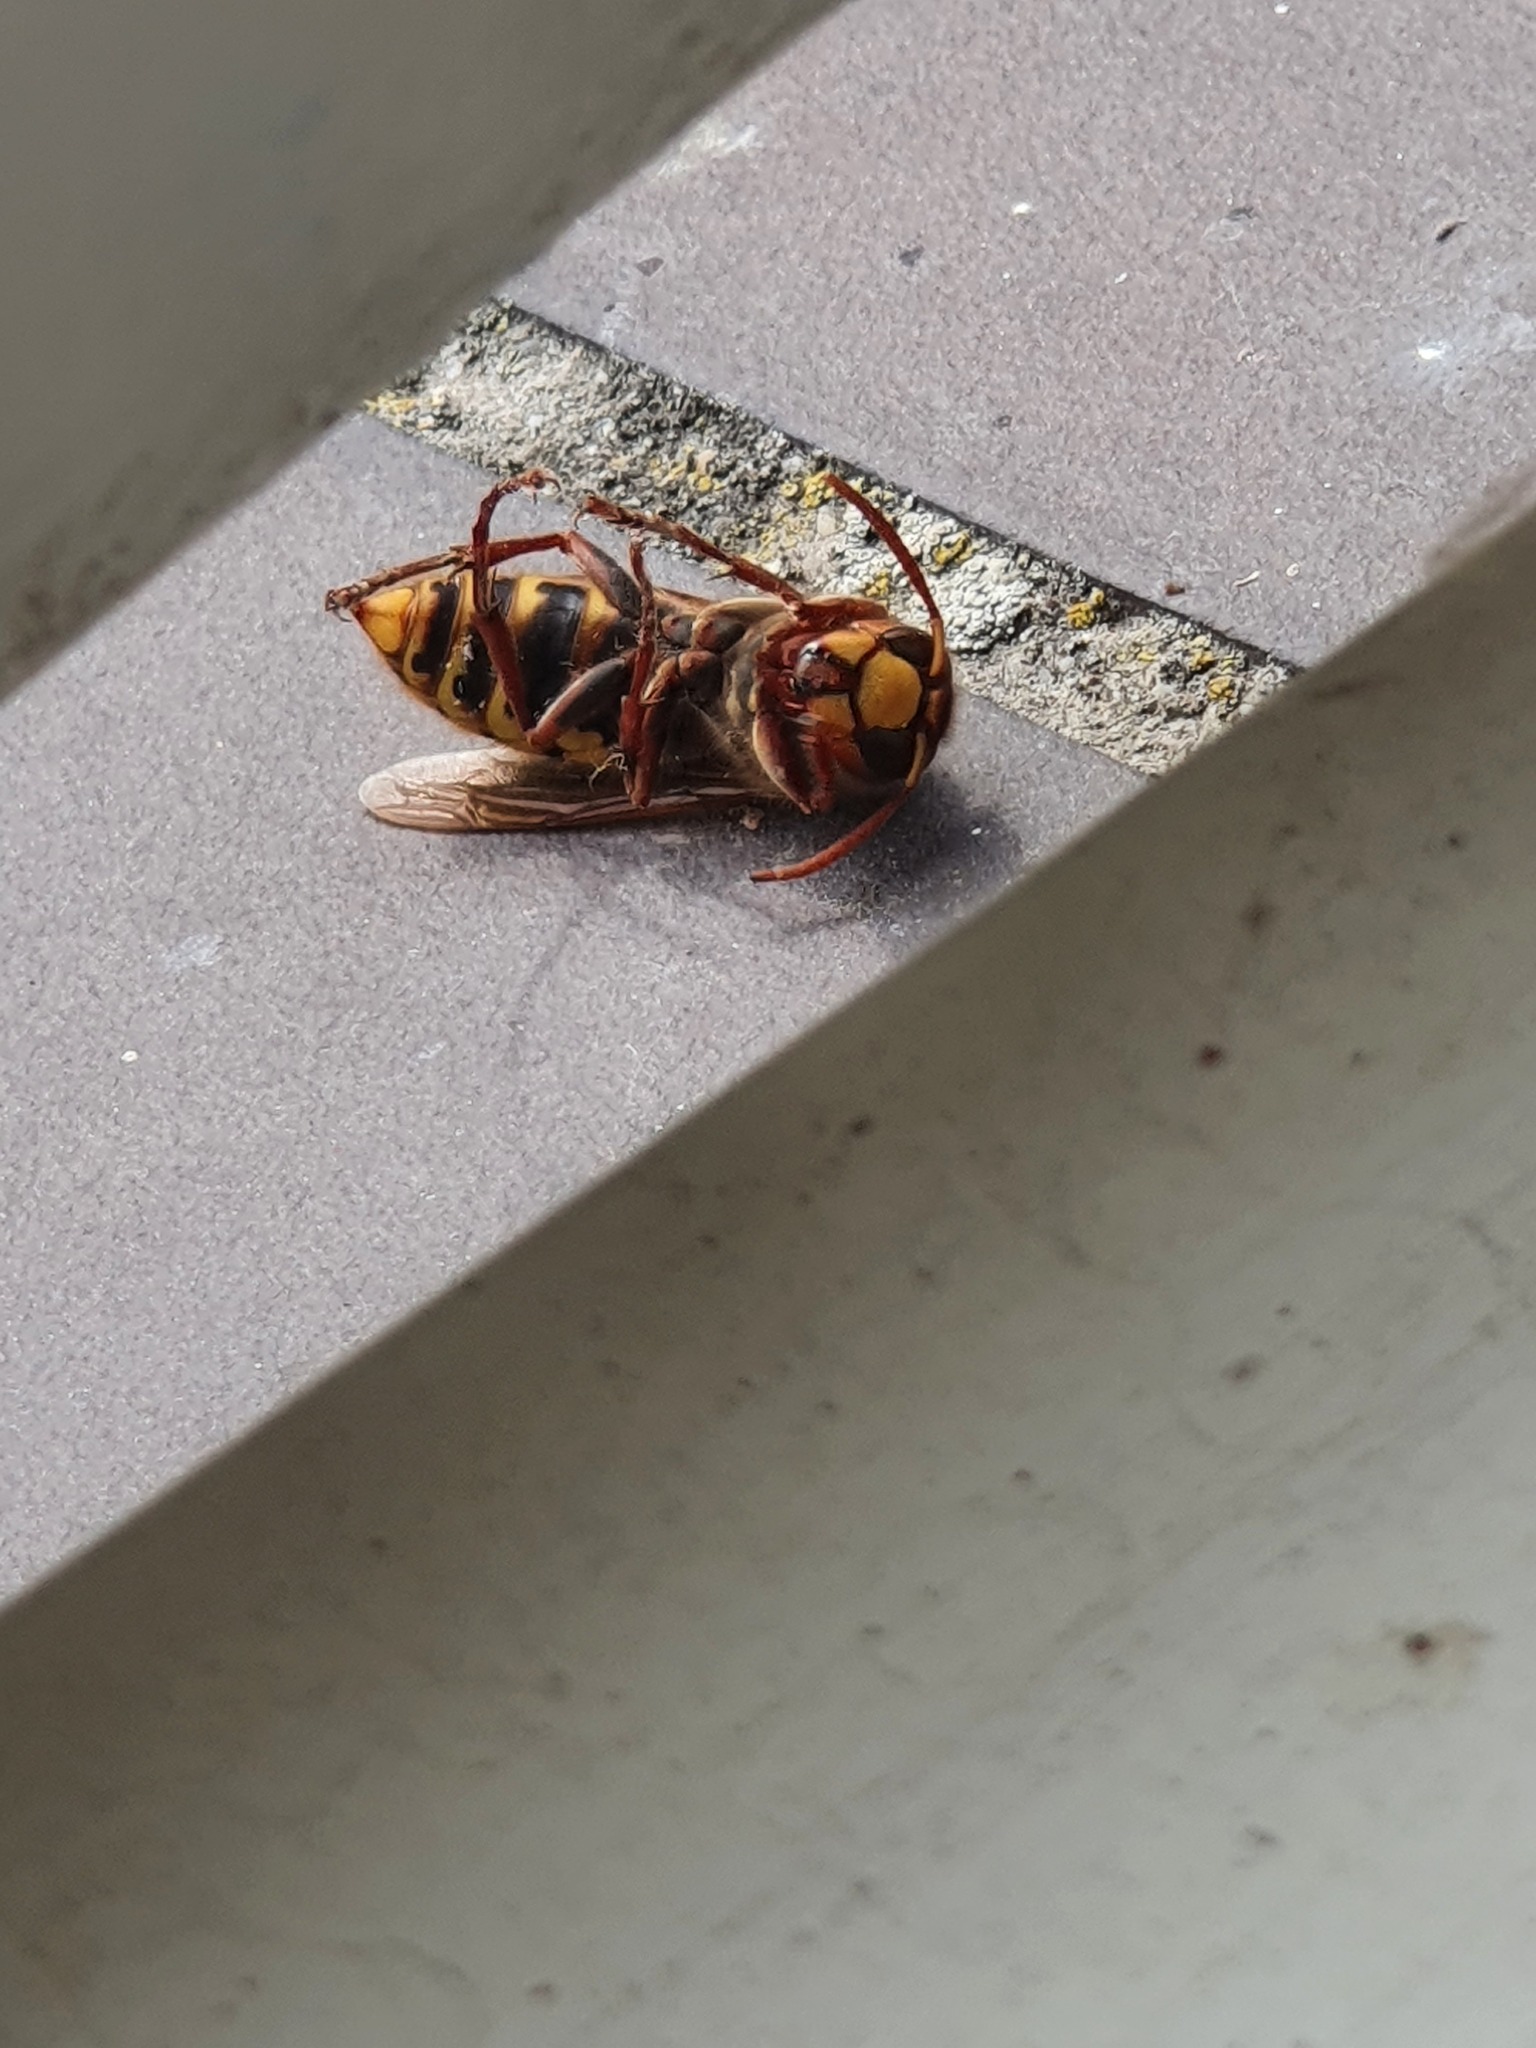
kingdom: Animalia
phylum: Arthropoda
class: Insecta
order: Hymenoptera
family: Vespidae
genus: Vespa
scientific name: Vespa crabro
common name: Hornet
